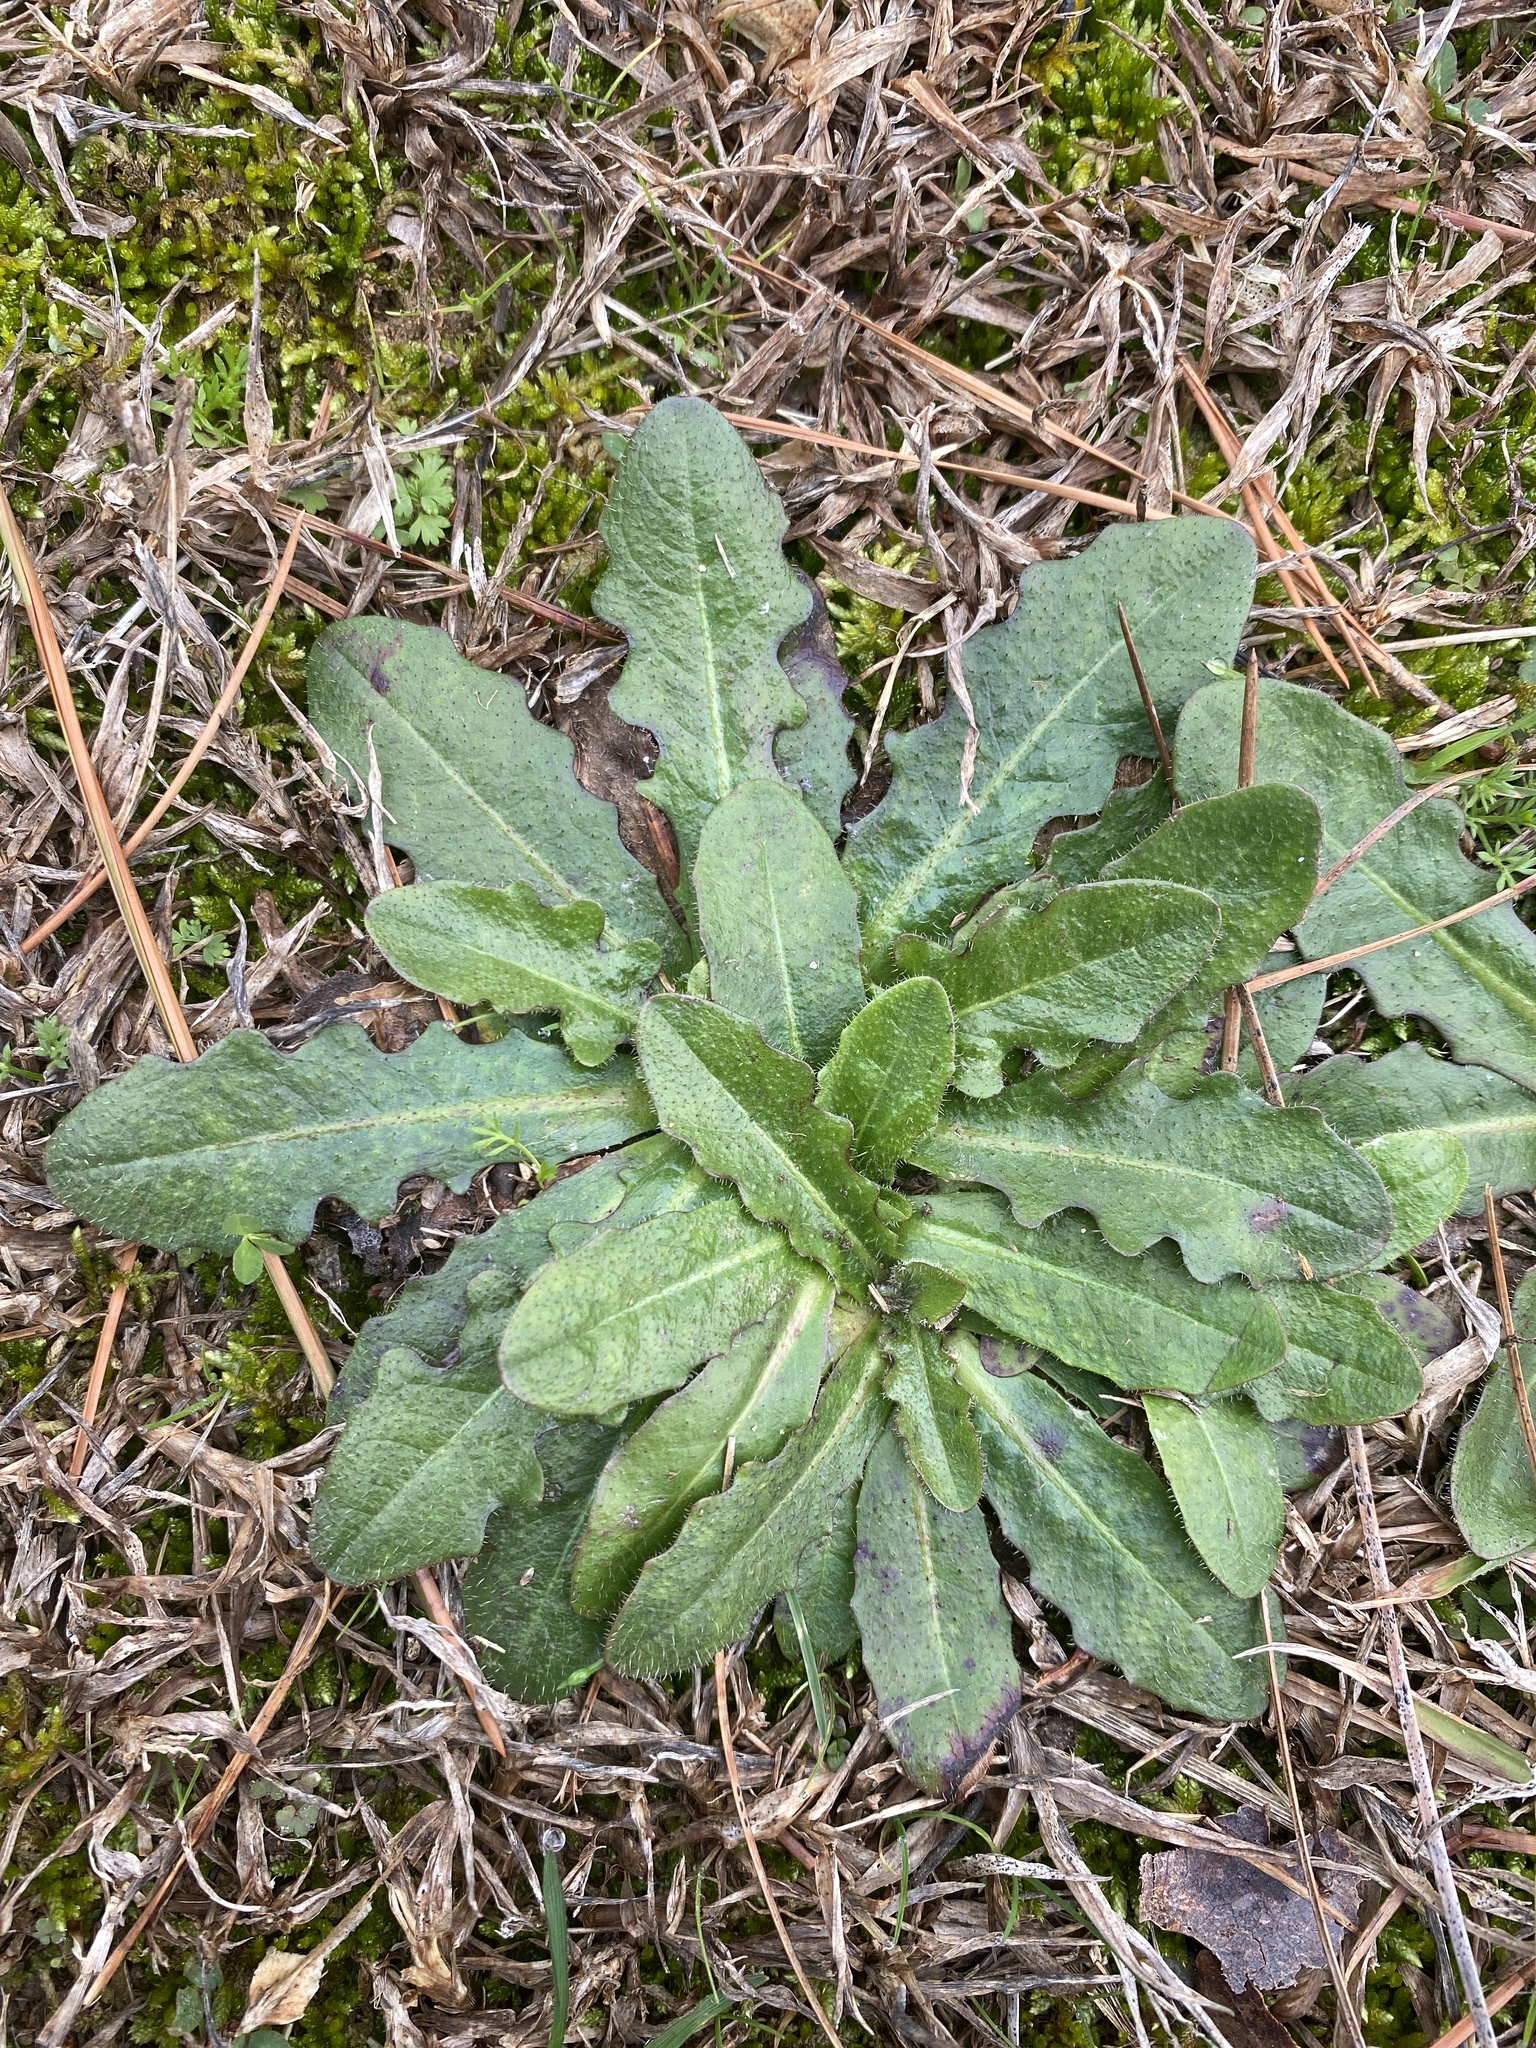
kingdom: Plantae
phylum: Tracheophyta
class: Magnoliopsida
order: Asterales
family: Asteraceae
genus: Hypochaeris
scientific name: Hypochaeris radicata
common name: Flatweed
